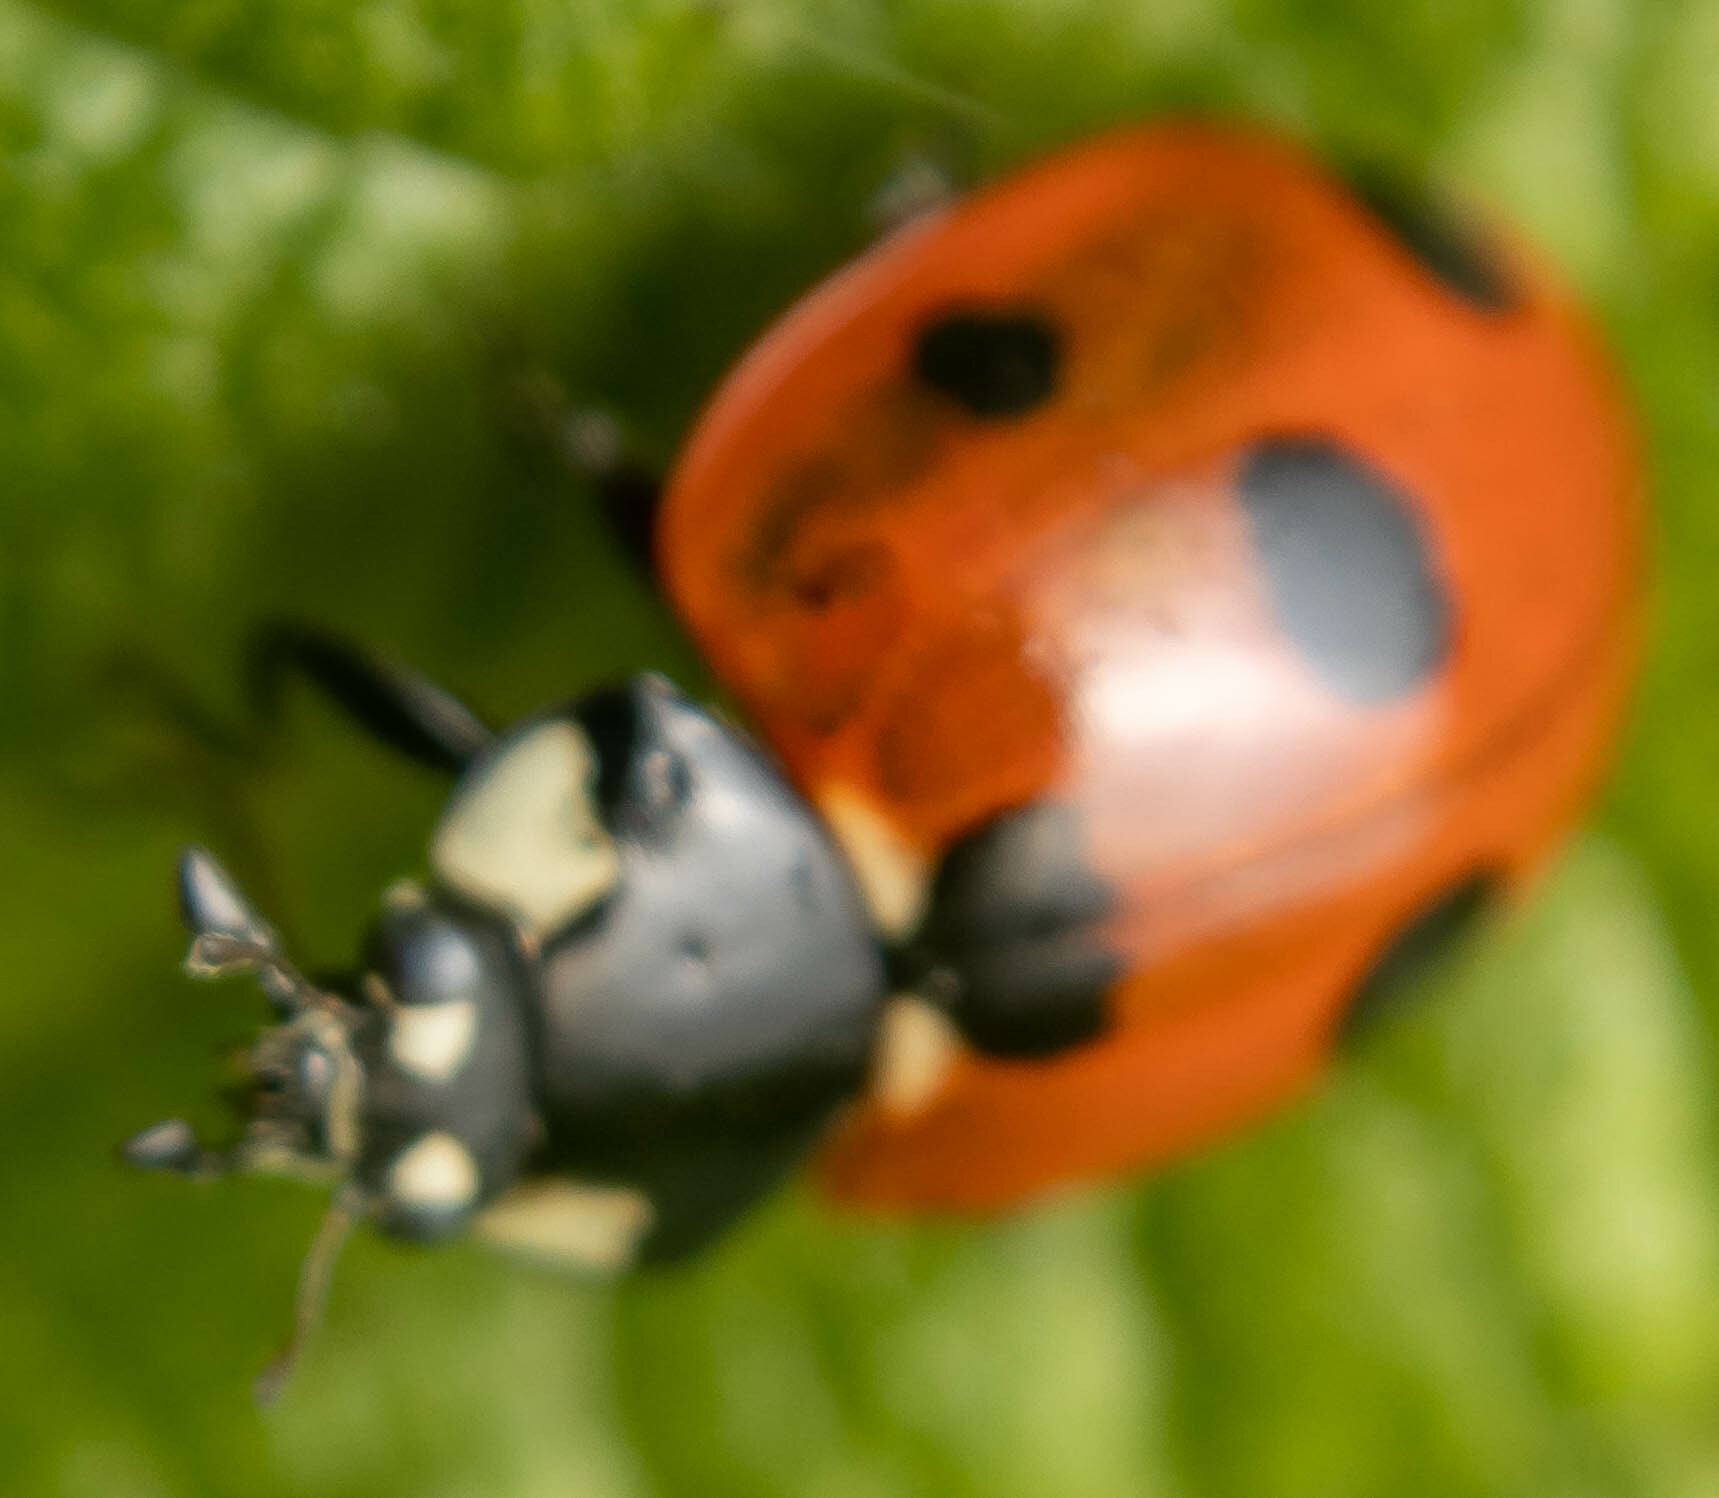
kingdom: Animalia
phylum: Arthropoda
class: Insecta
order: Coleoptera
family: Coccinellidae
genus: Coccinella
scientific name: Coccinella septempunctata
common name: Sevenspotted lady beetle
